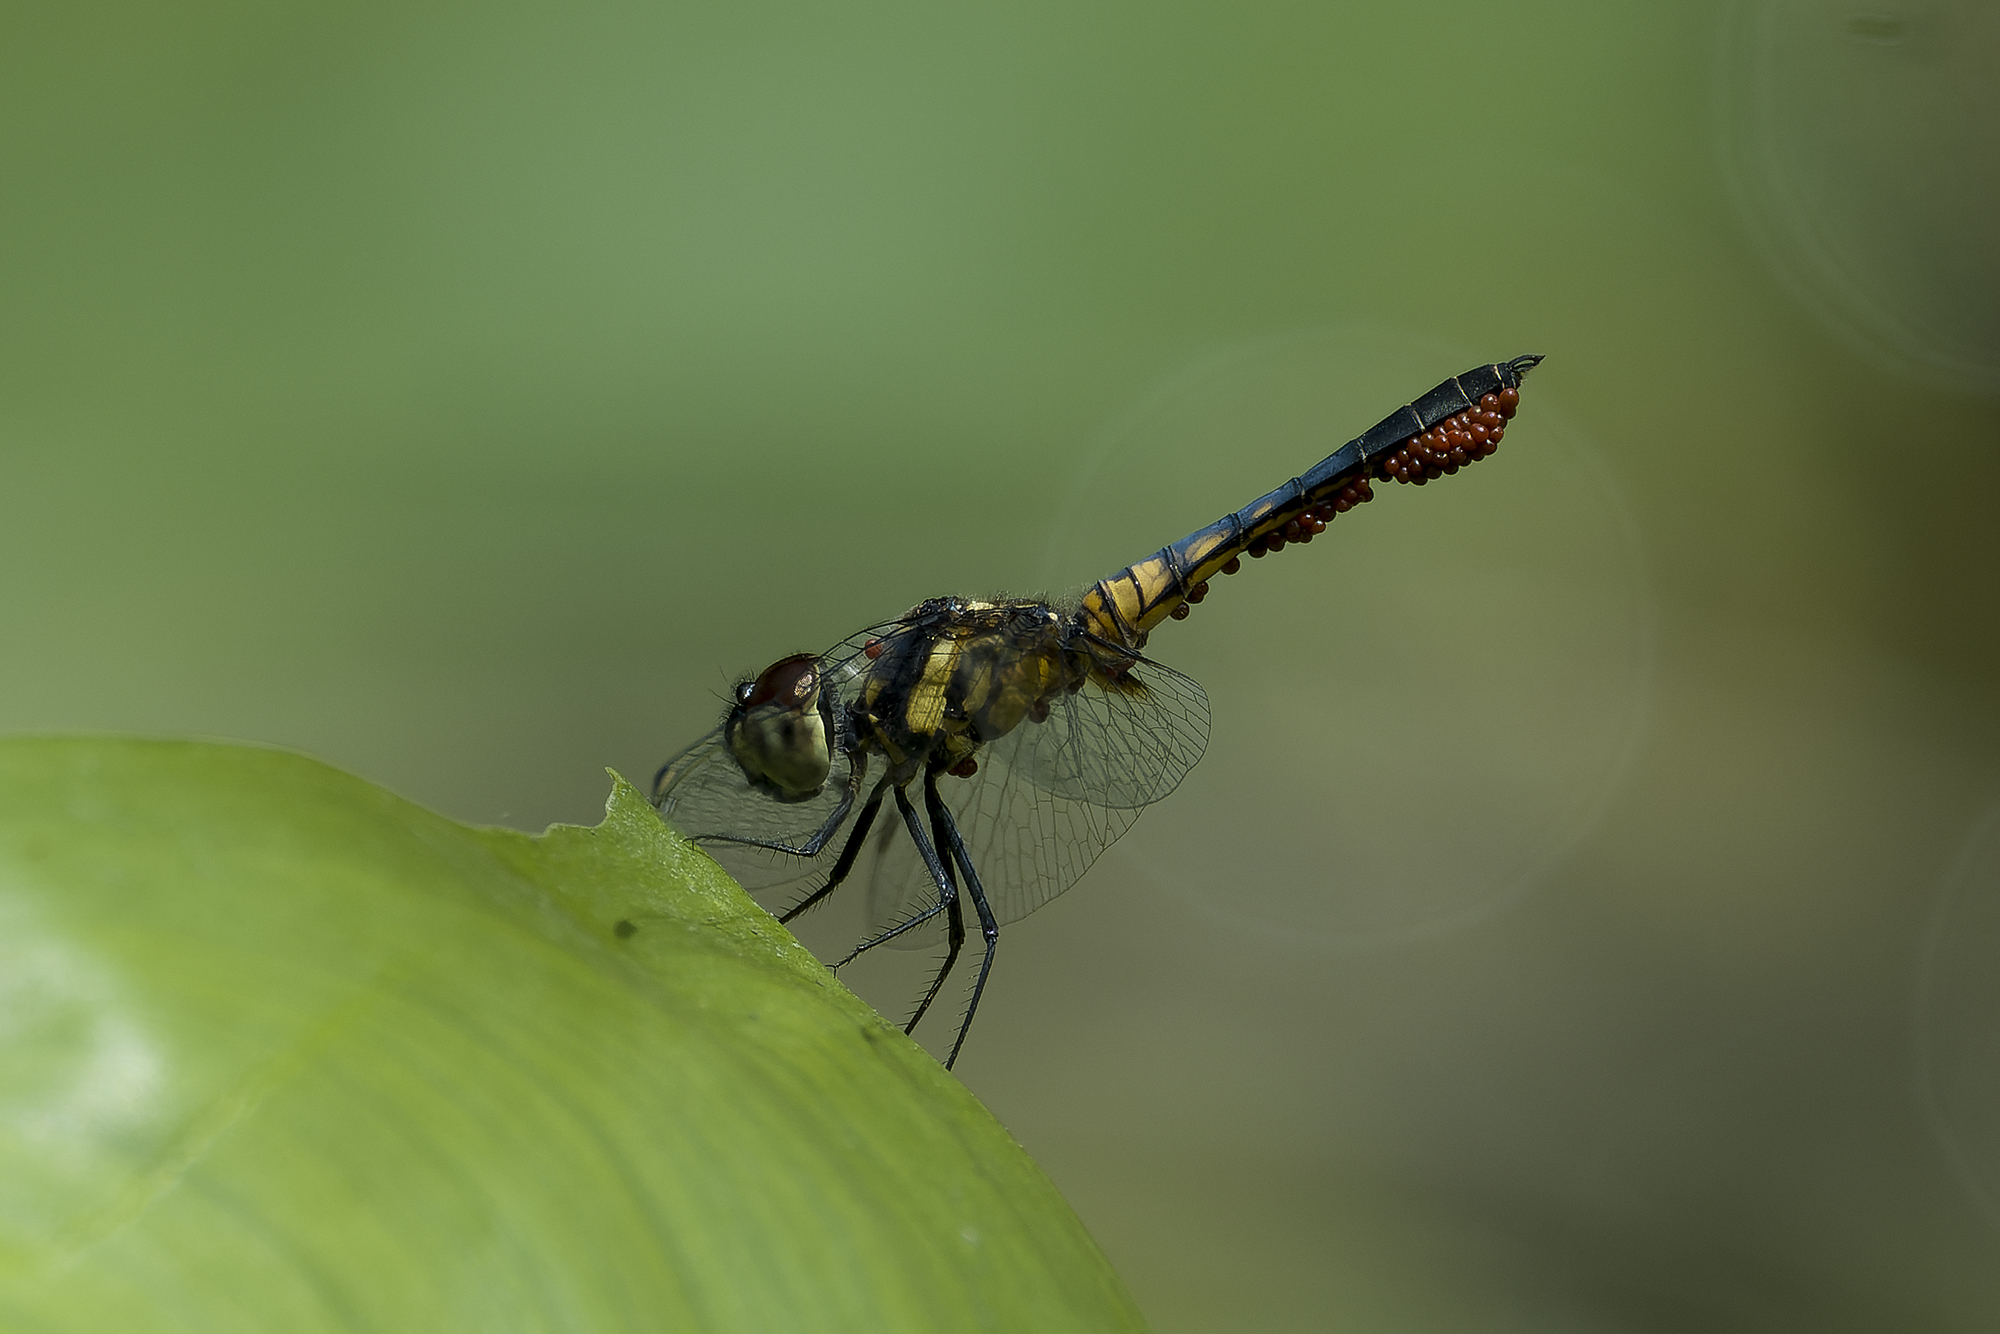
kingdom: Animalia
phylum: Arthropoda
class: Insecta
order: Odonata
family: Libellulidae
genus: Aethriamanta
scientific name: Aethriamanta aethra
